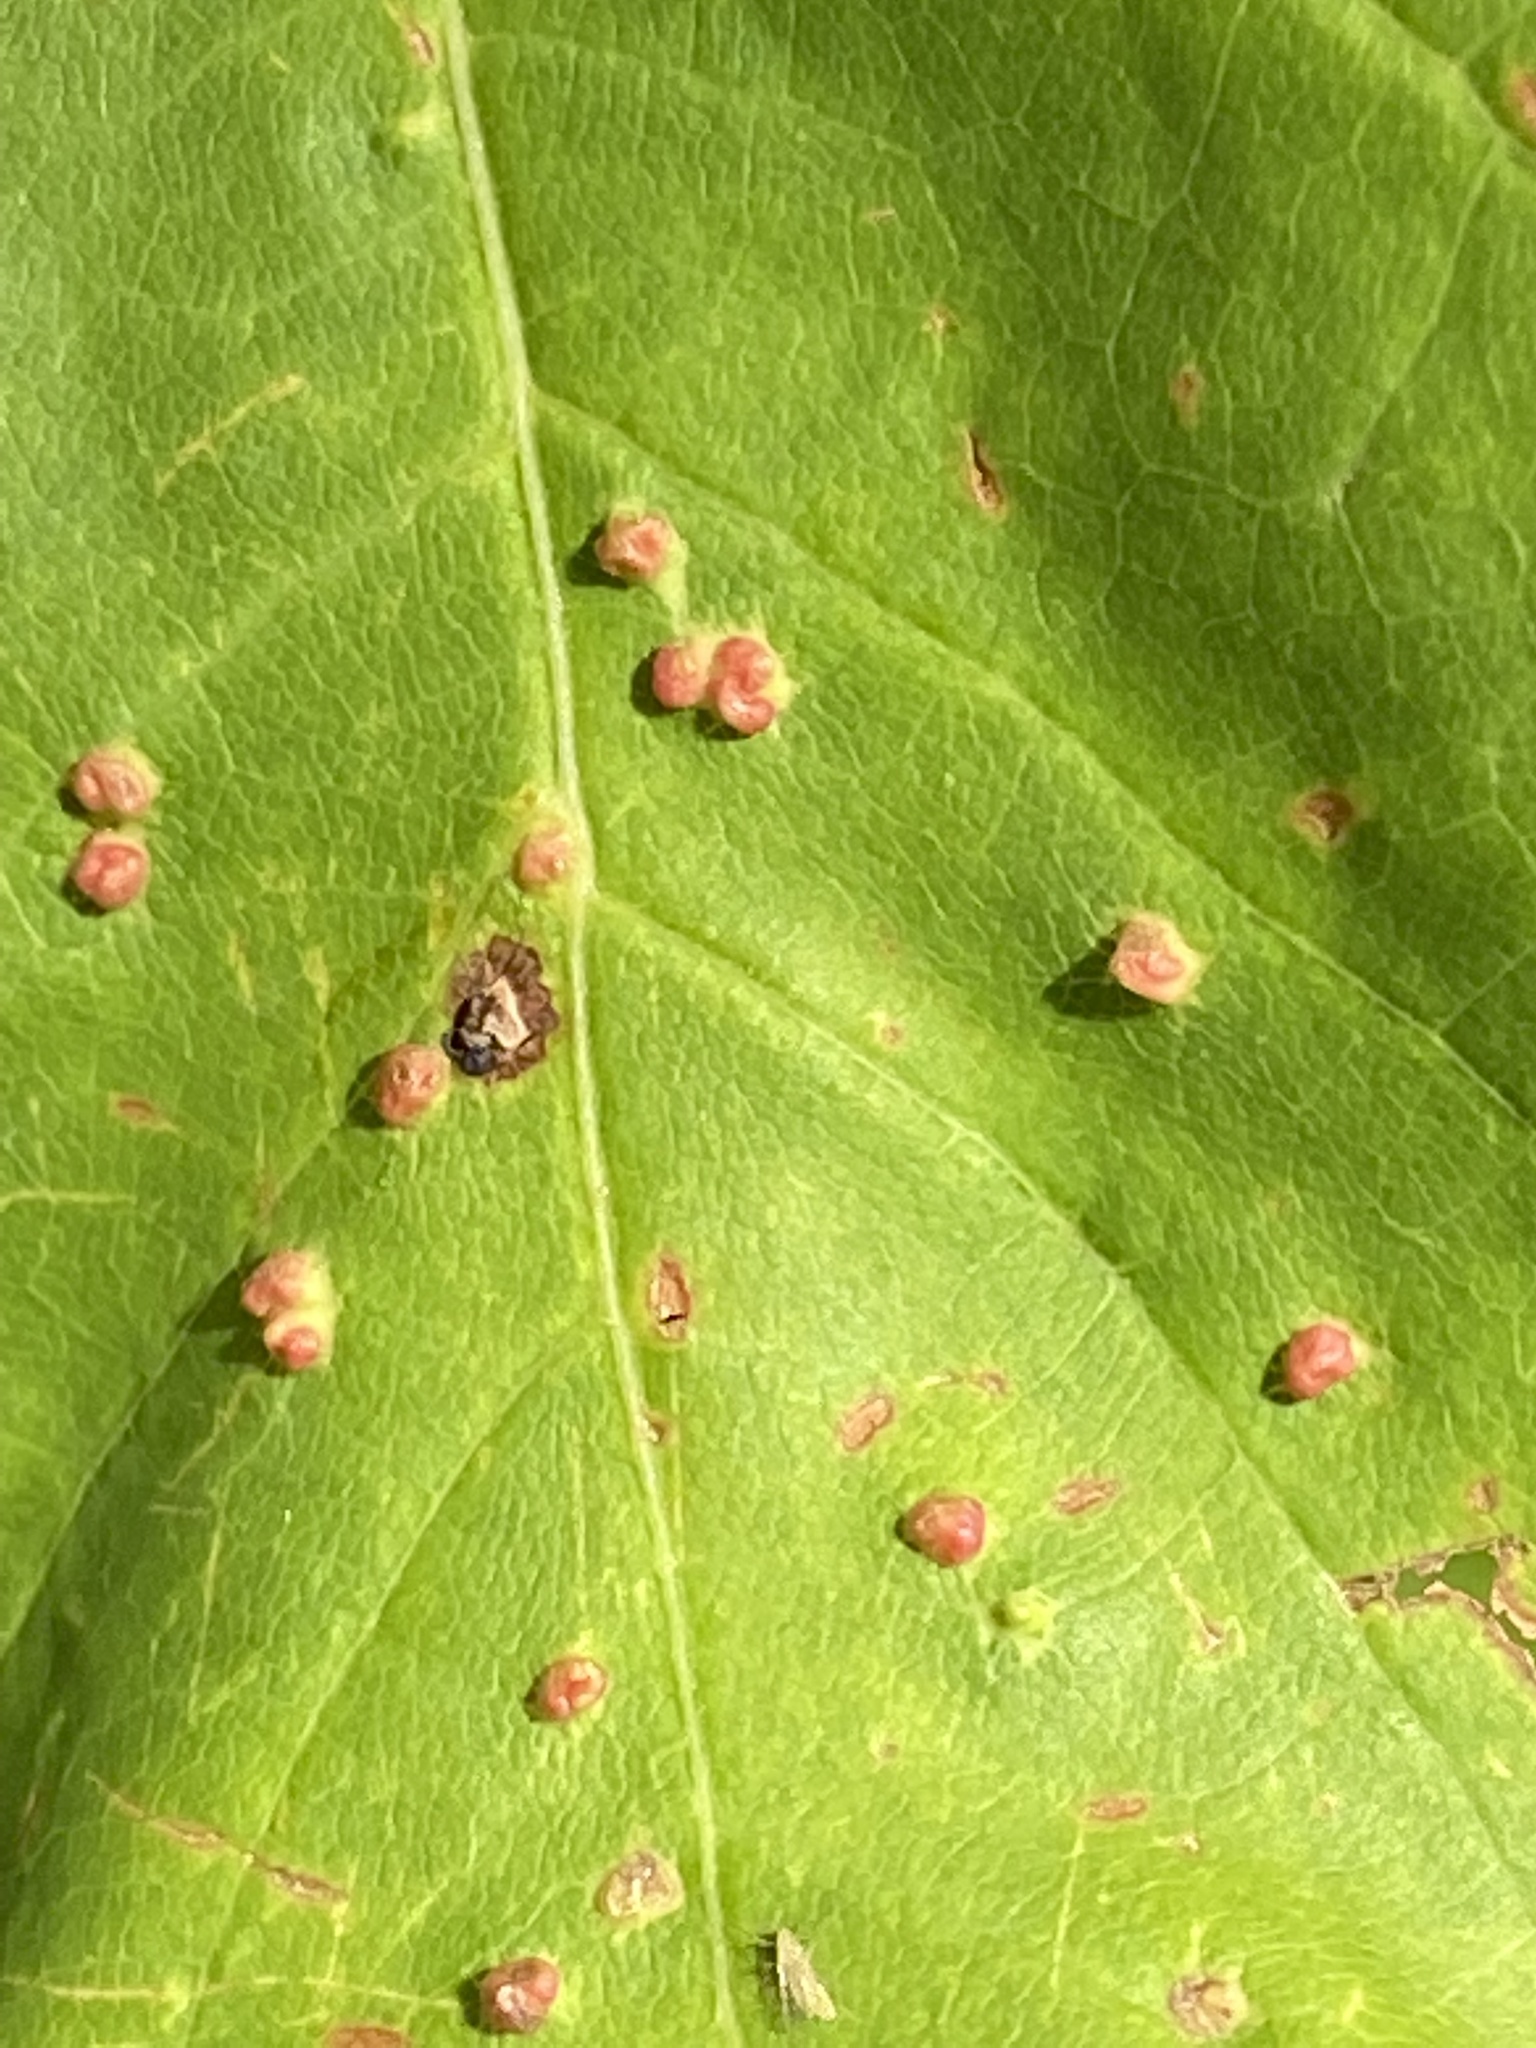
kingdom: Animalia
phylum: Arthropoda
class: Arachnida
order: Trombidiformes
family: Eriophyidae
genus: Vasates
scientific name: Vasates quadripedes
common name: Maple bladder gall mite
